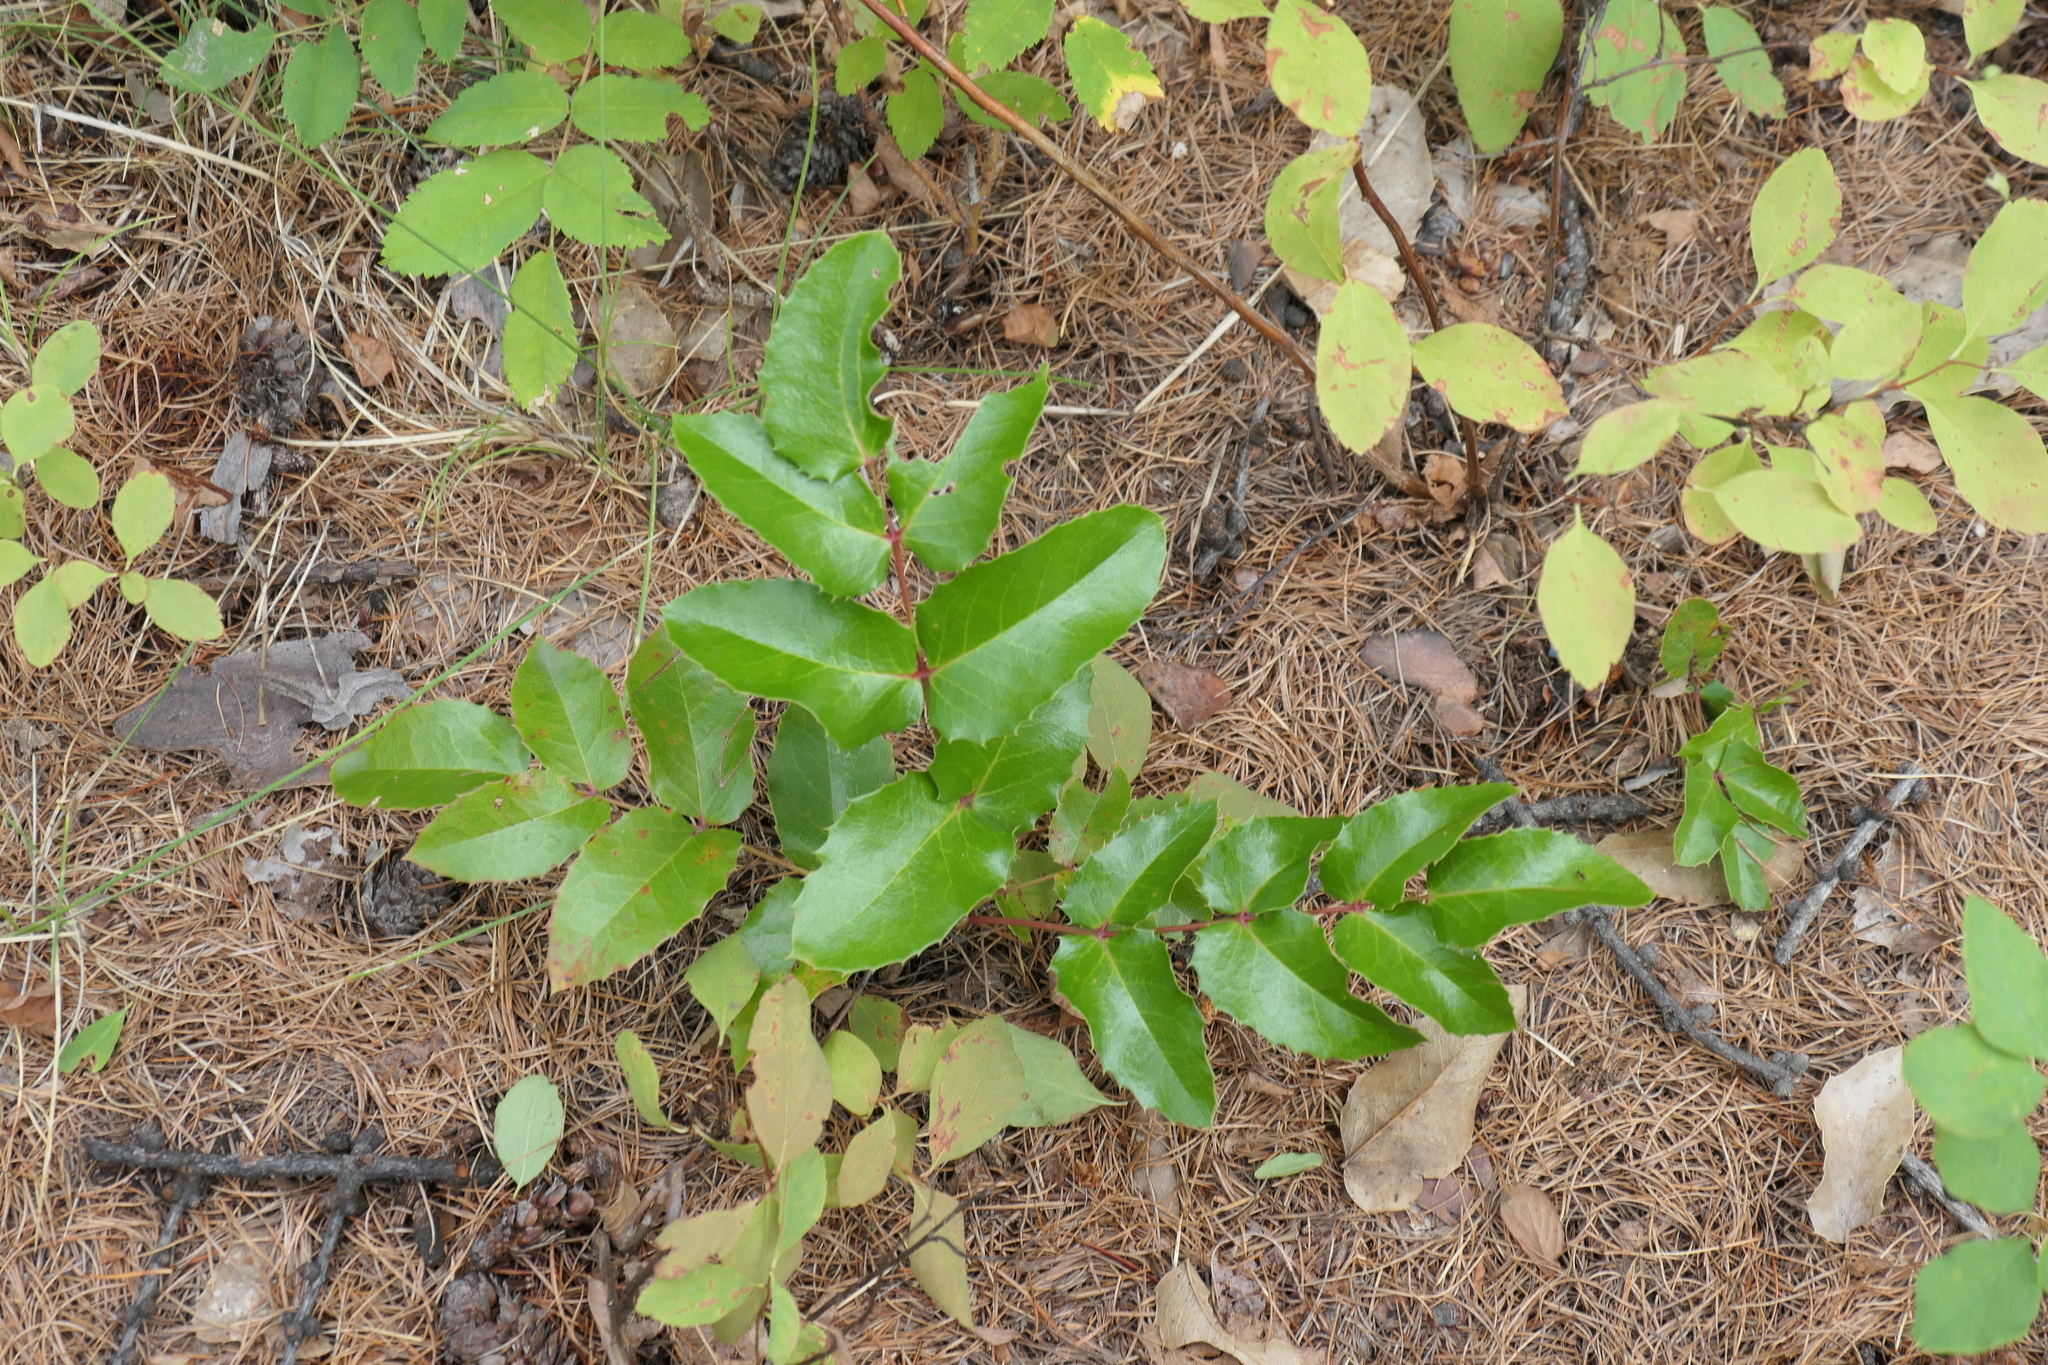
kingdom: Plantae
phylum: Tracheophyta
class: Magnoliopsida
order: Ranunculales
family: Berberidaceae
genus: Mahonia
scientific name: Mahonia repens
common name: Creeping oregon-grape
